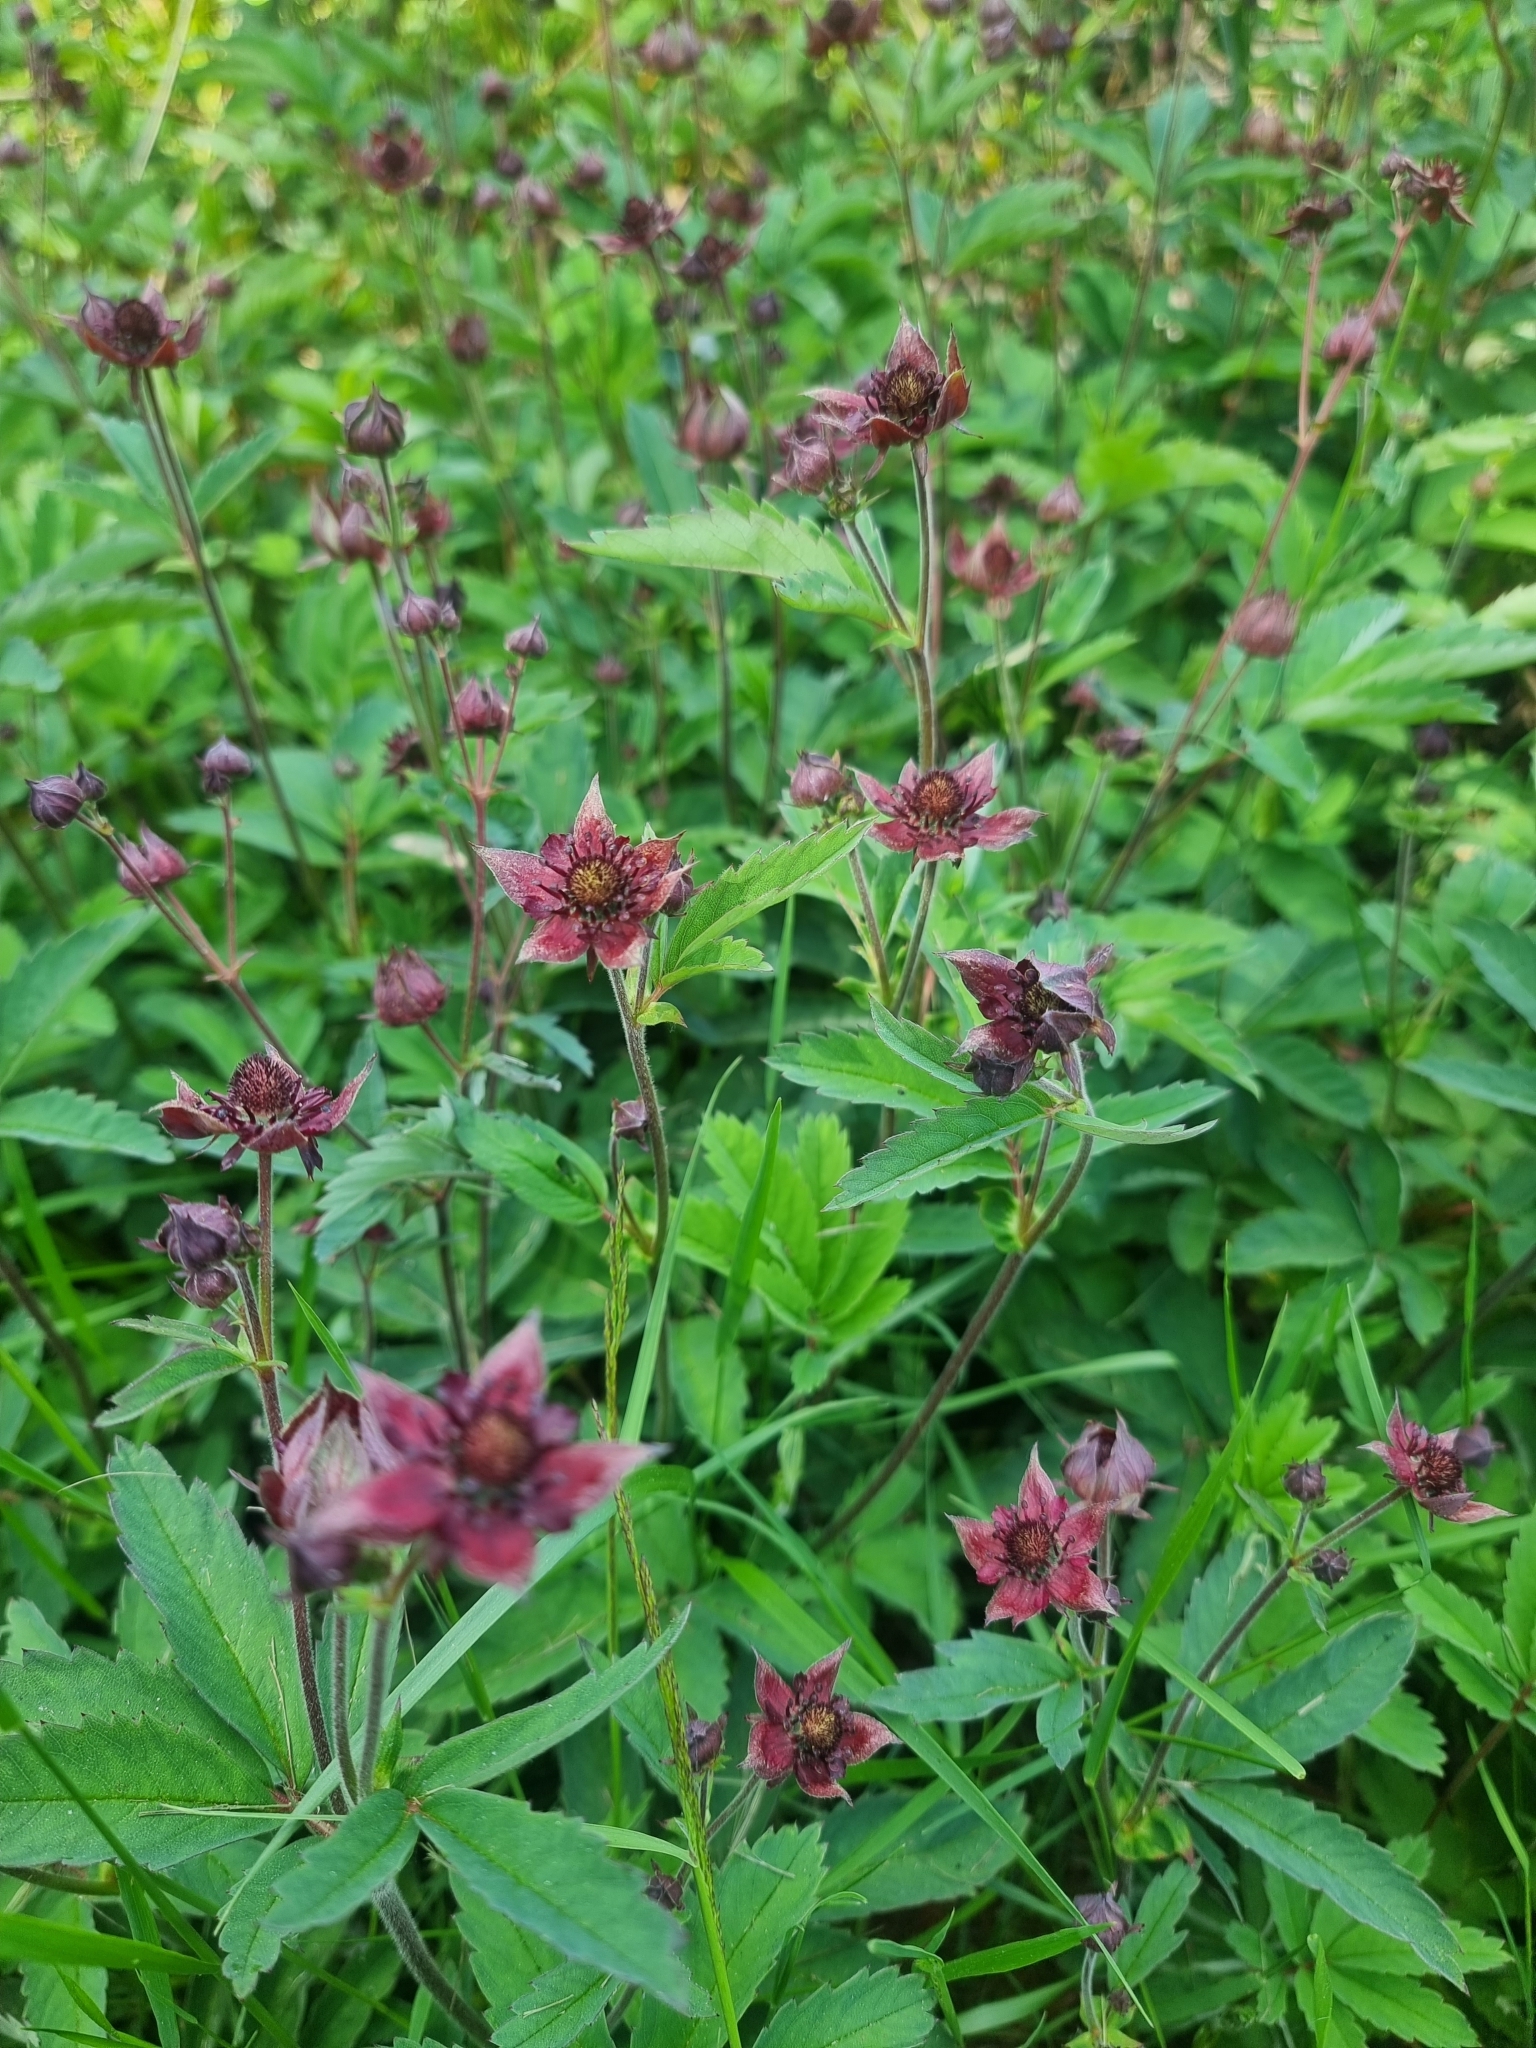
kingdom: Plantae
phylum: Tracheophyta
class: Magnoliopsida
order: Rosales
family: Rosaceae
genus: Comarum
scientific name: Comarum palustre
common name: Marsh cinquefoil
